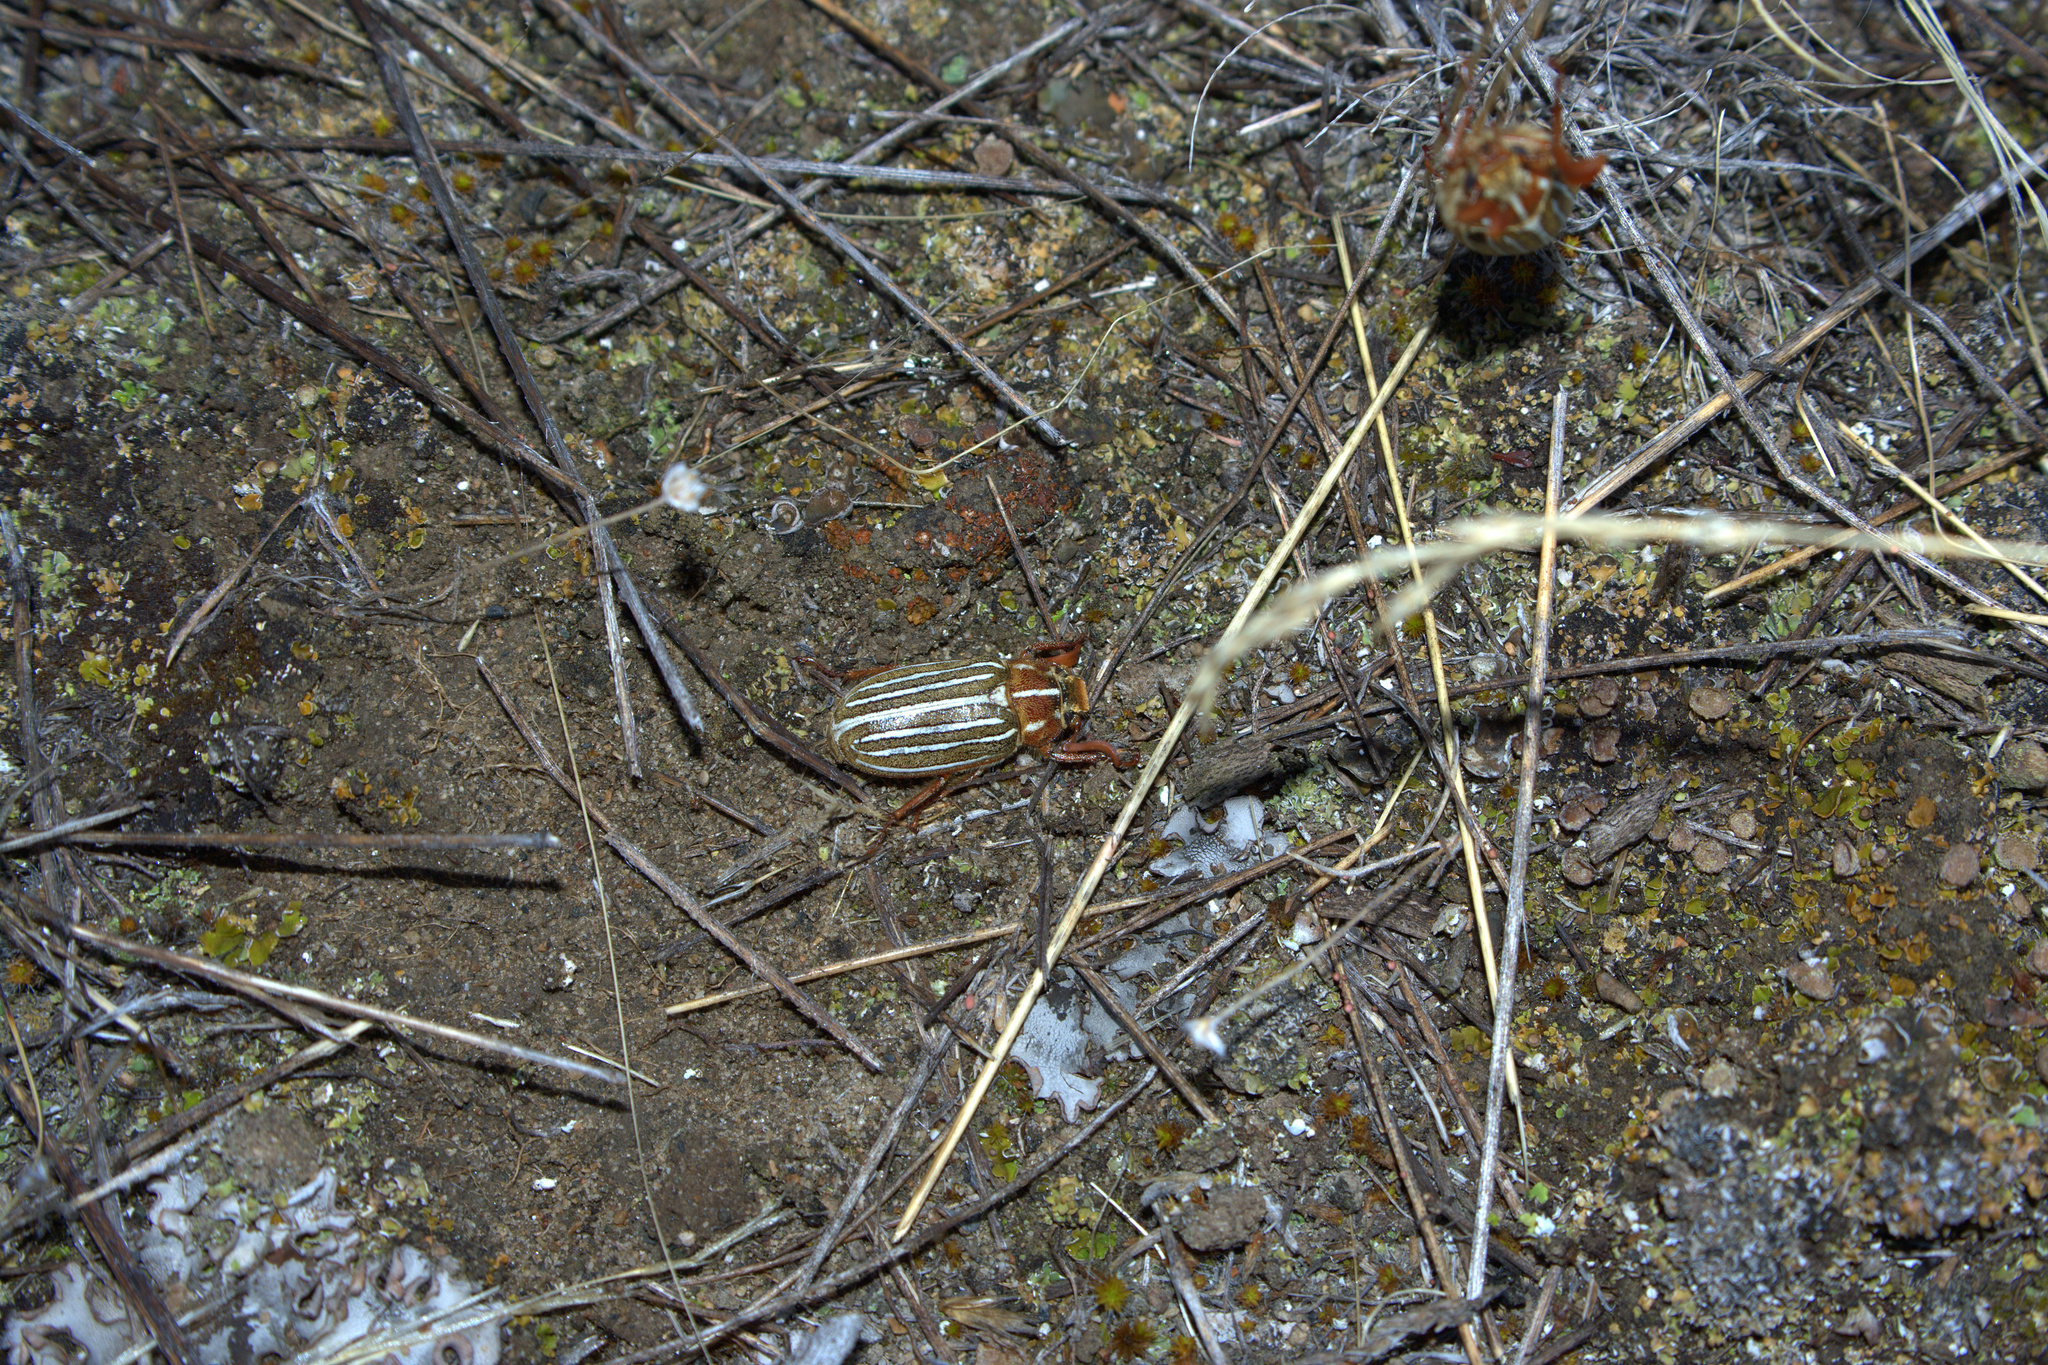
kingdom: Animalia
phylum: Arthropoda
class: Insecta
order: Coleoptera
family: Scarabaeidae
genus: Polyphylla
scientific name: Polyphylla crinita
